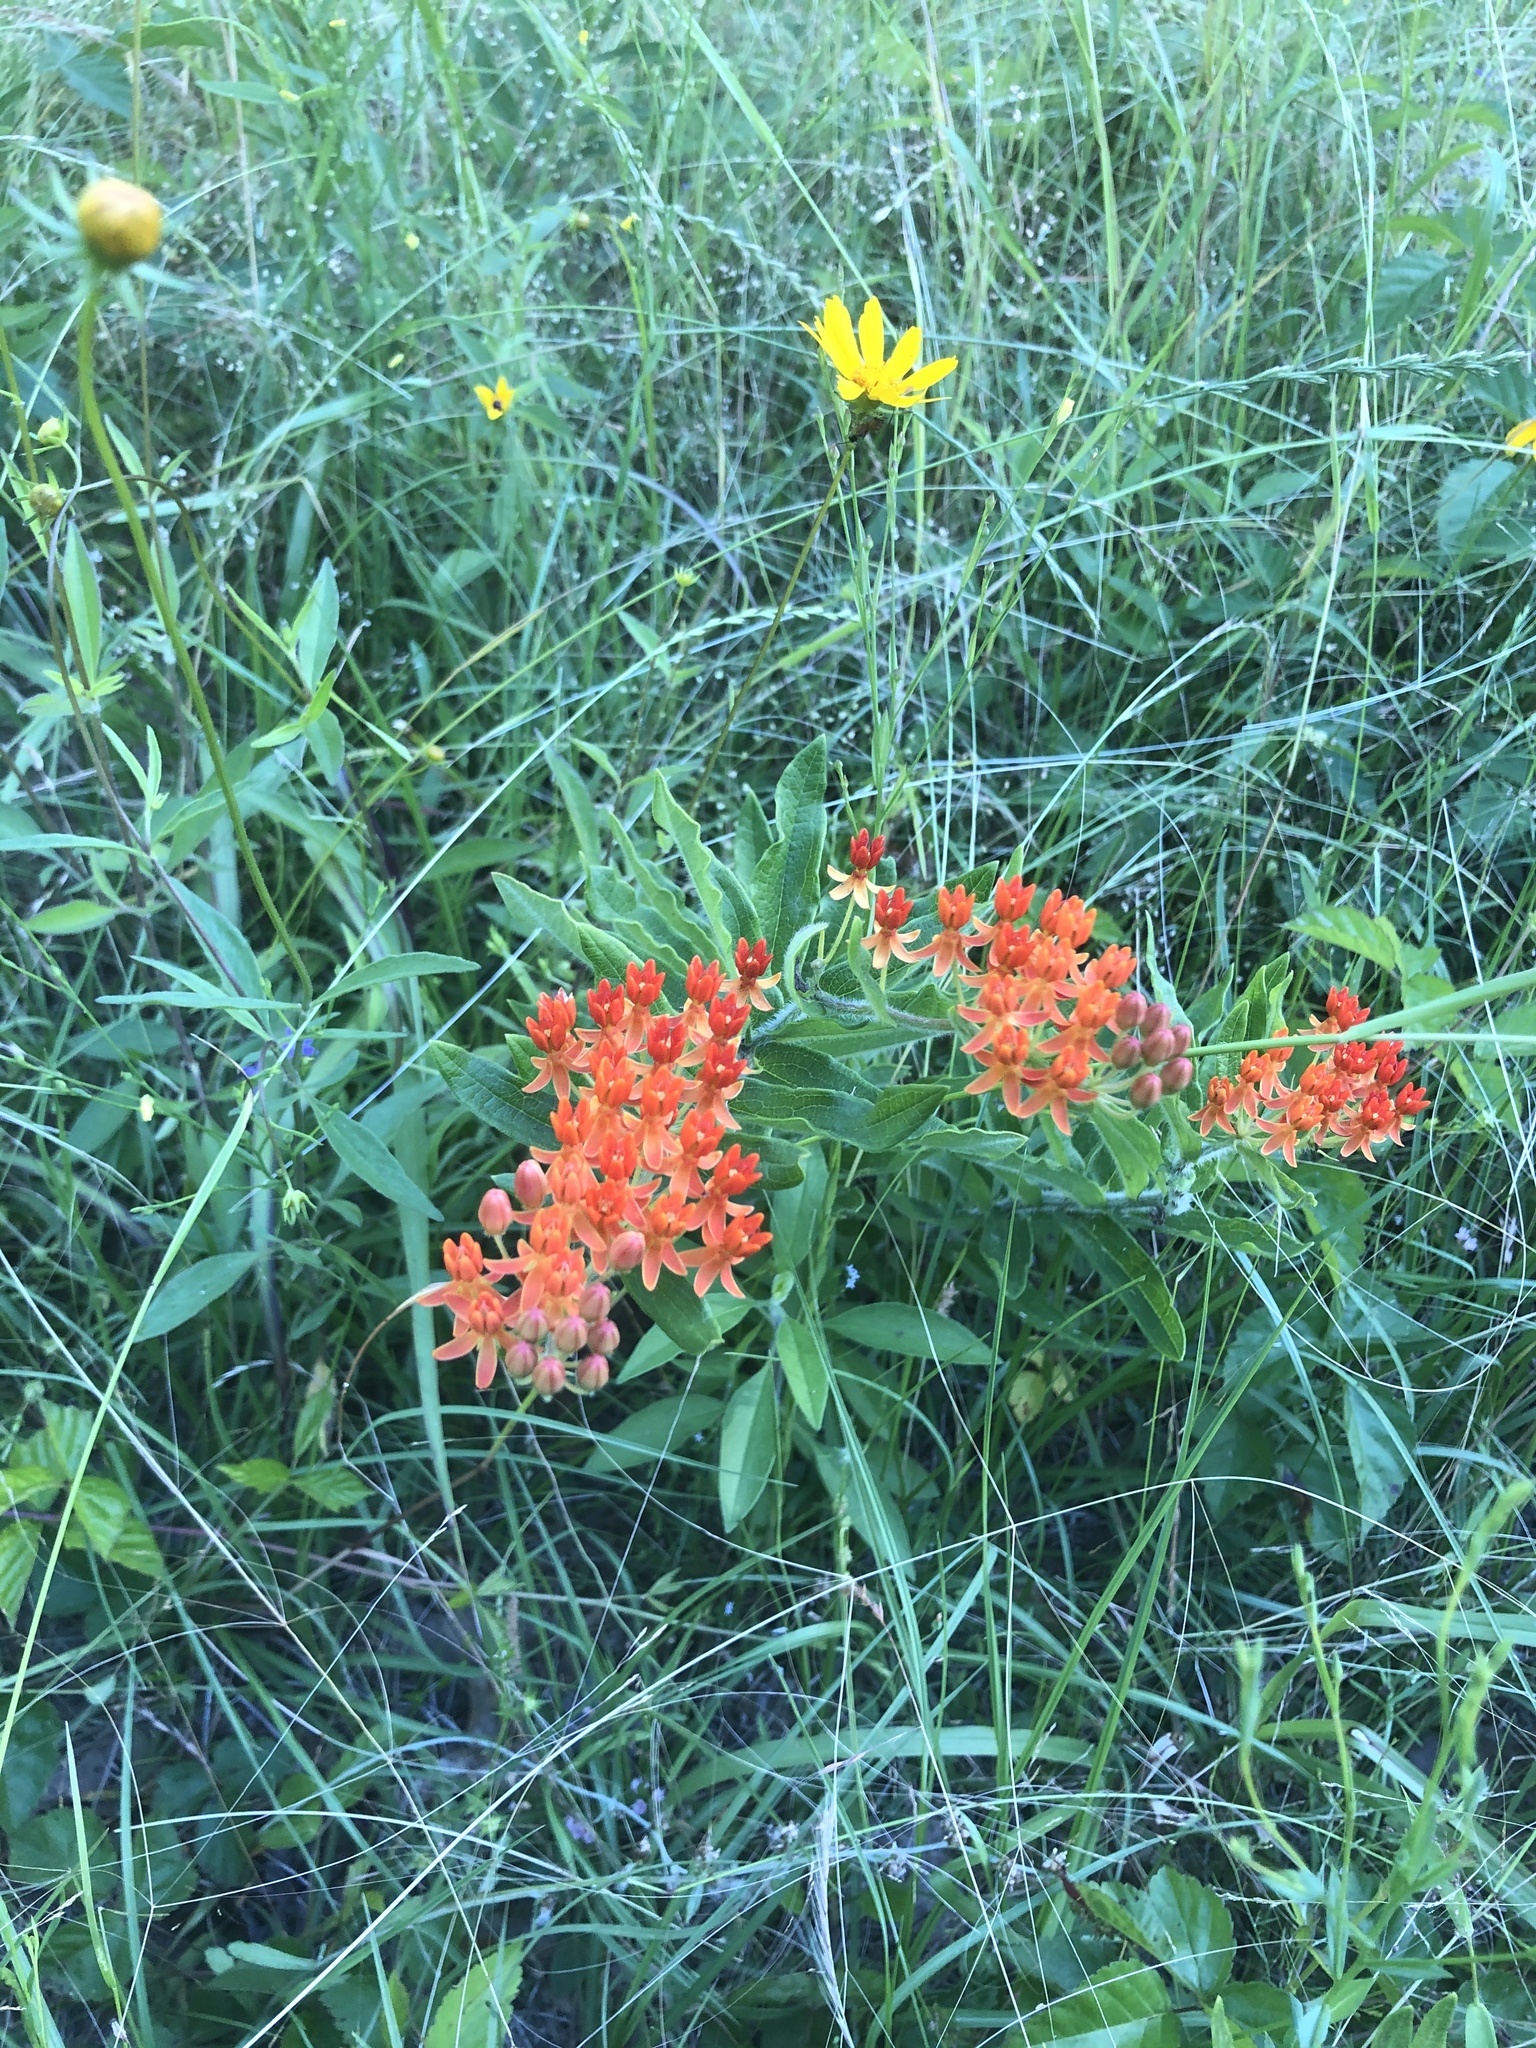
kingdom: Plantae
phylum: Tracheophyta
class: Magnoliopsida
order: Gentianales
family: Apocynaceae
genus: Asclepias
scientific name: Asclepias tuberosa
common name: Butterfly milkweed
